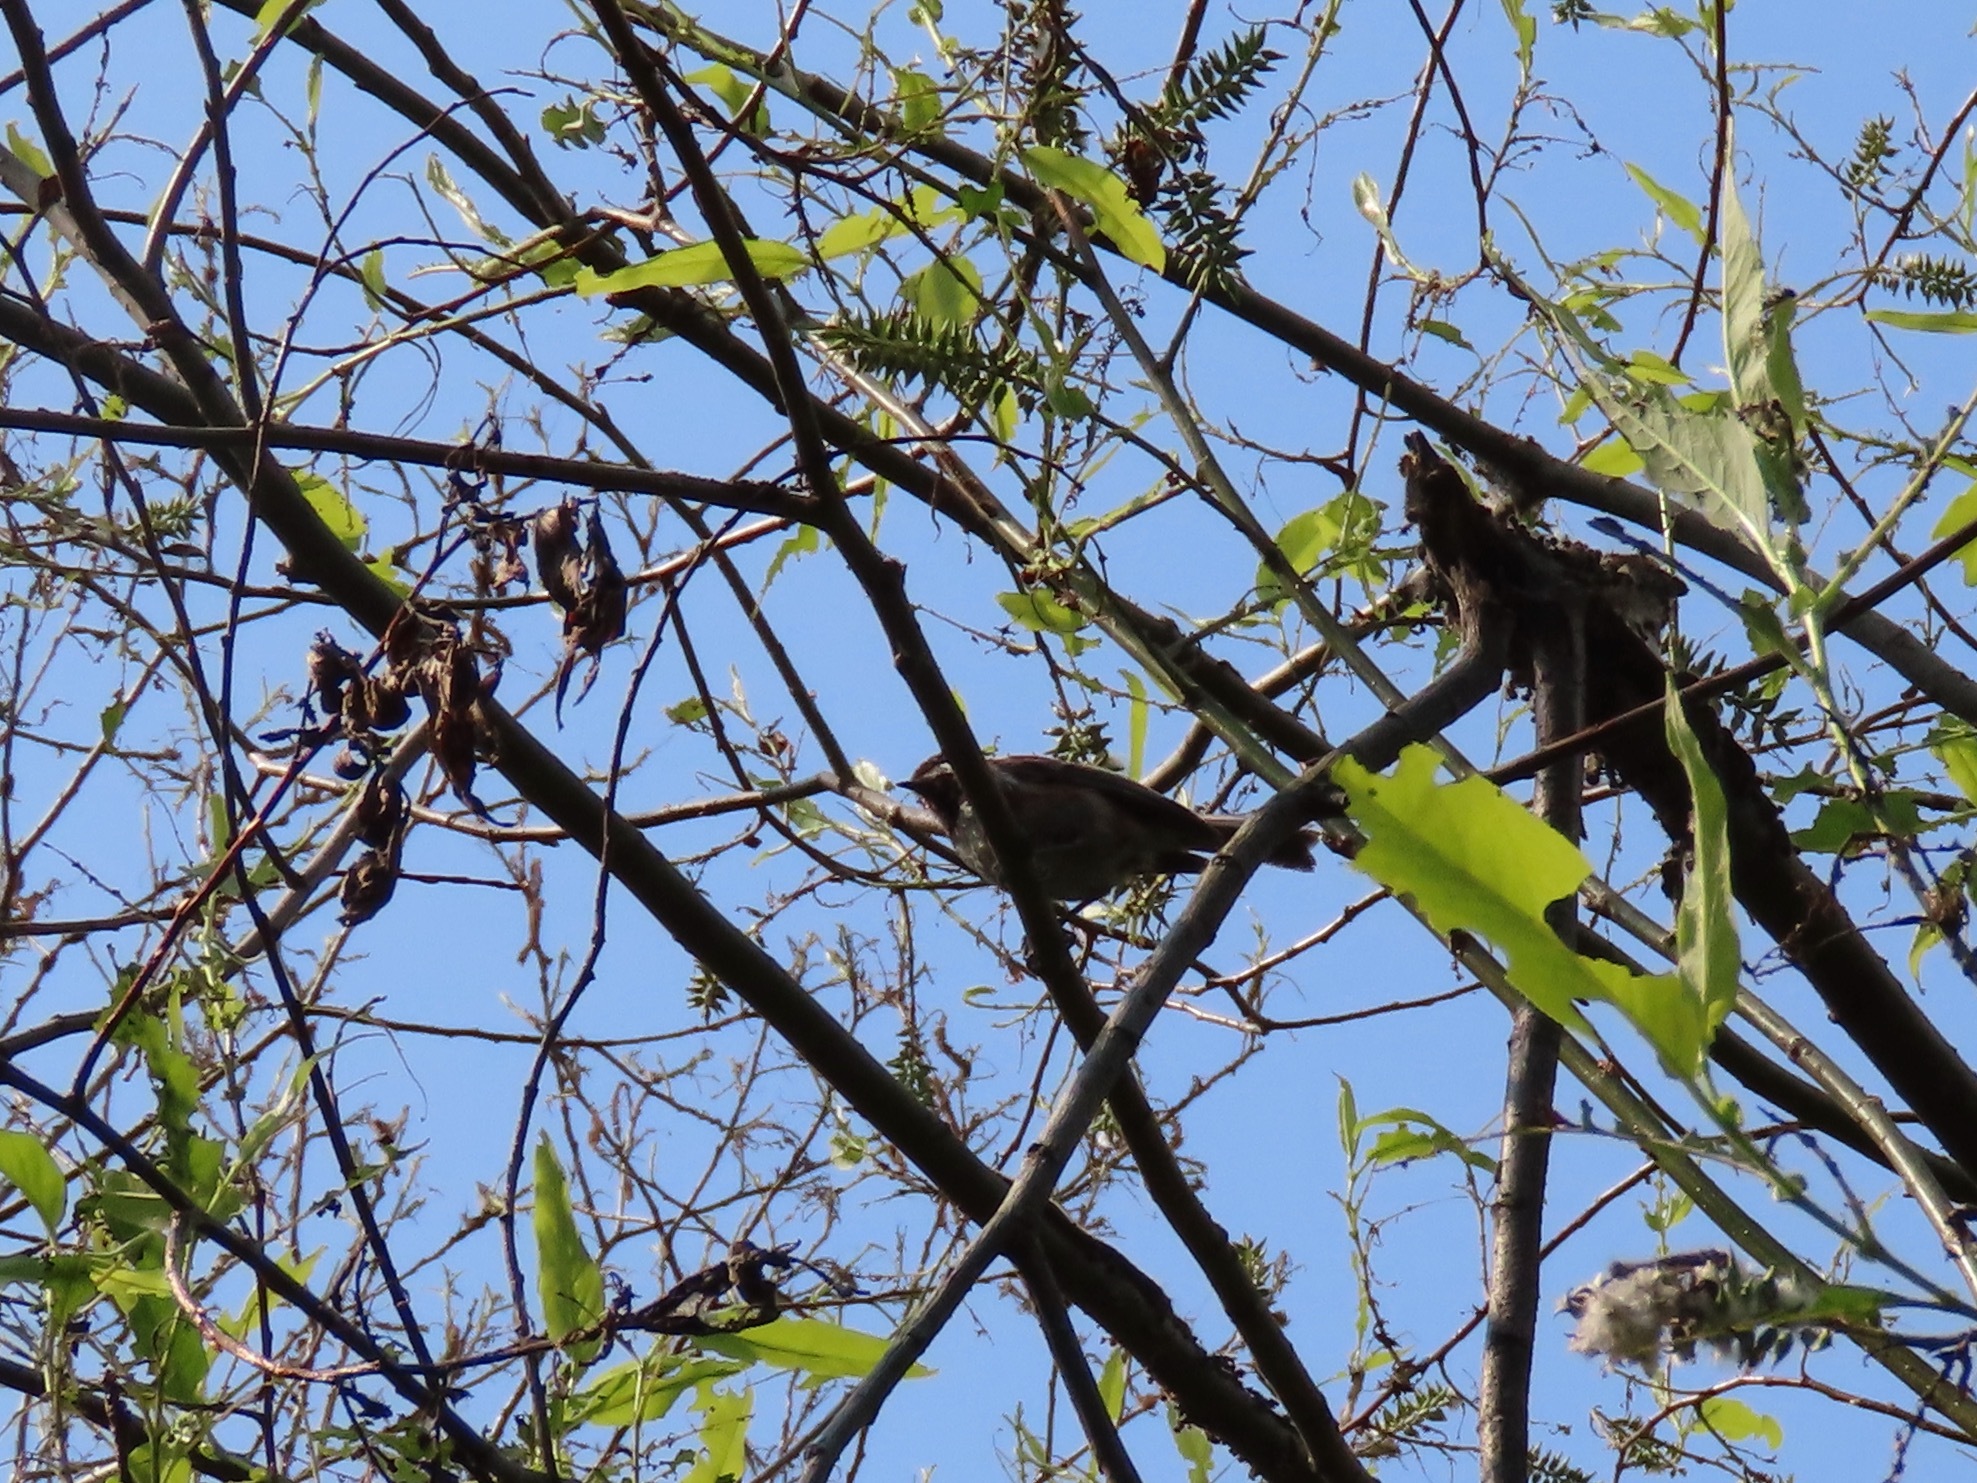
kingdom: Animalia
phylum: Chordata
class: Aves
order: Passeriformes
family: Paridae
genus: Poecile
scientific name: Poecile rufescens
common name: Chestnut-backed chickadee
